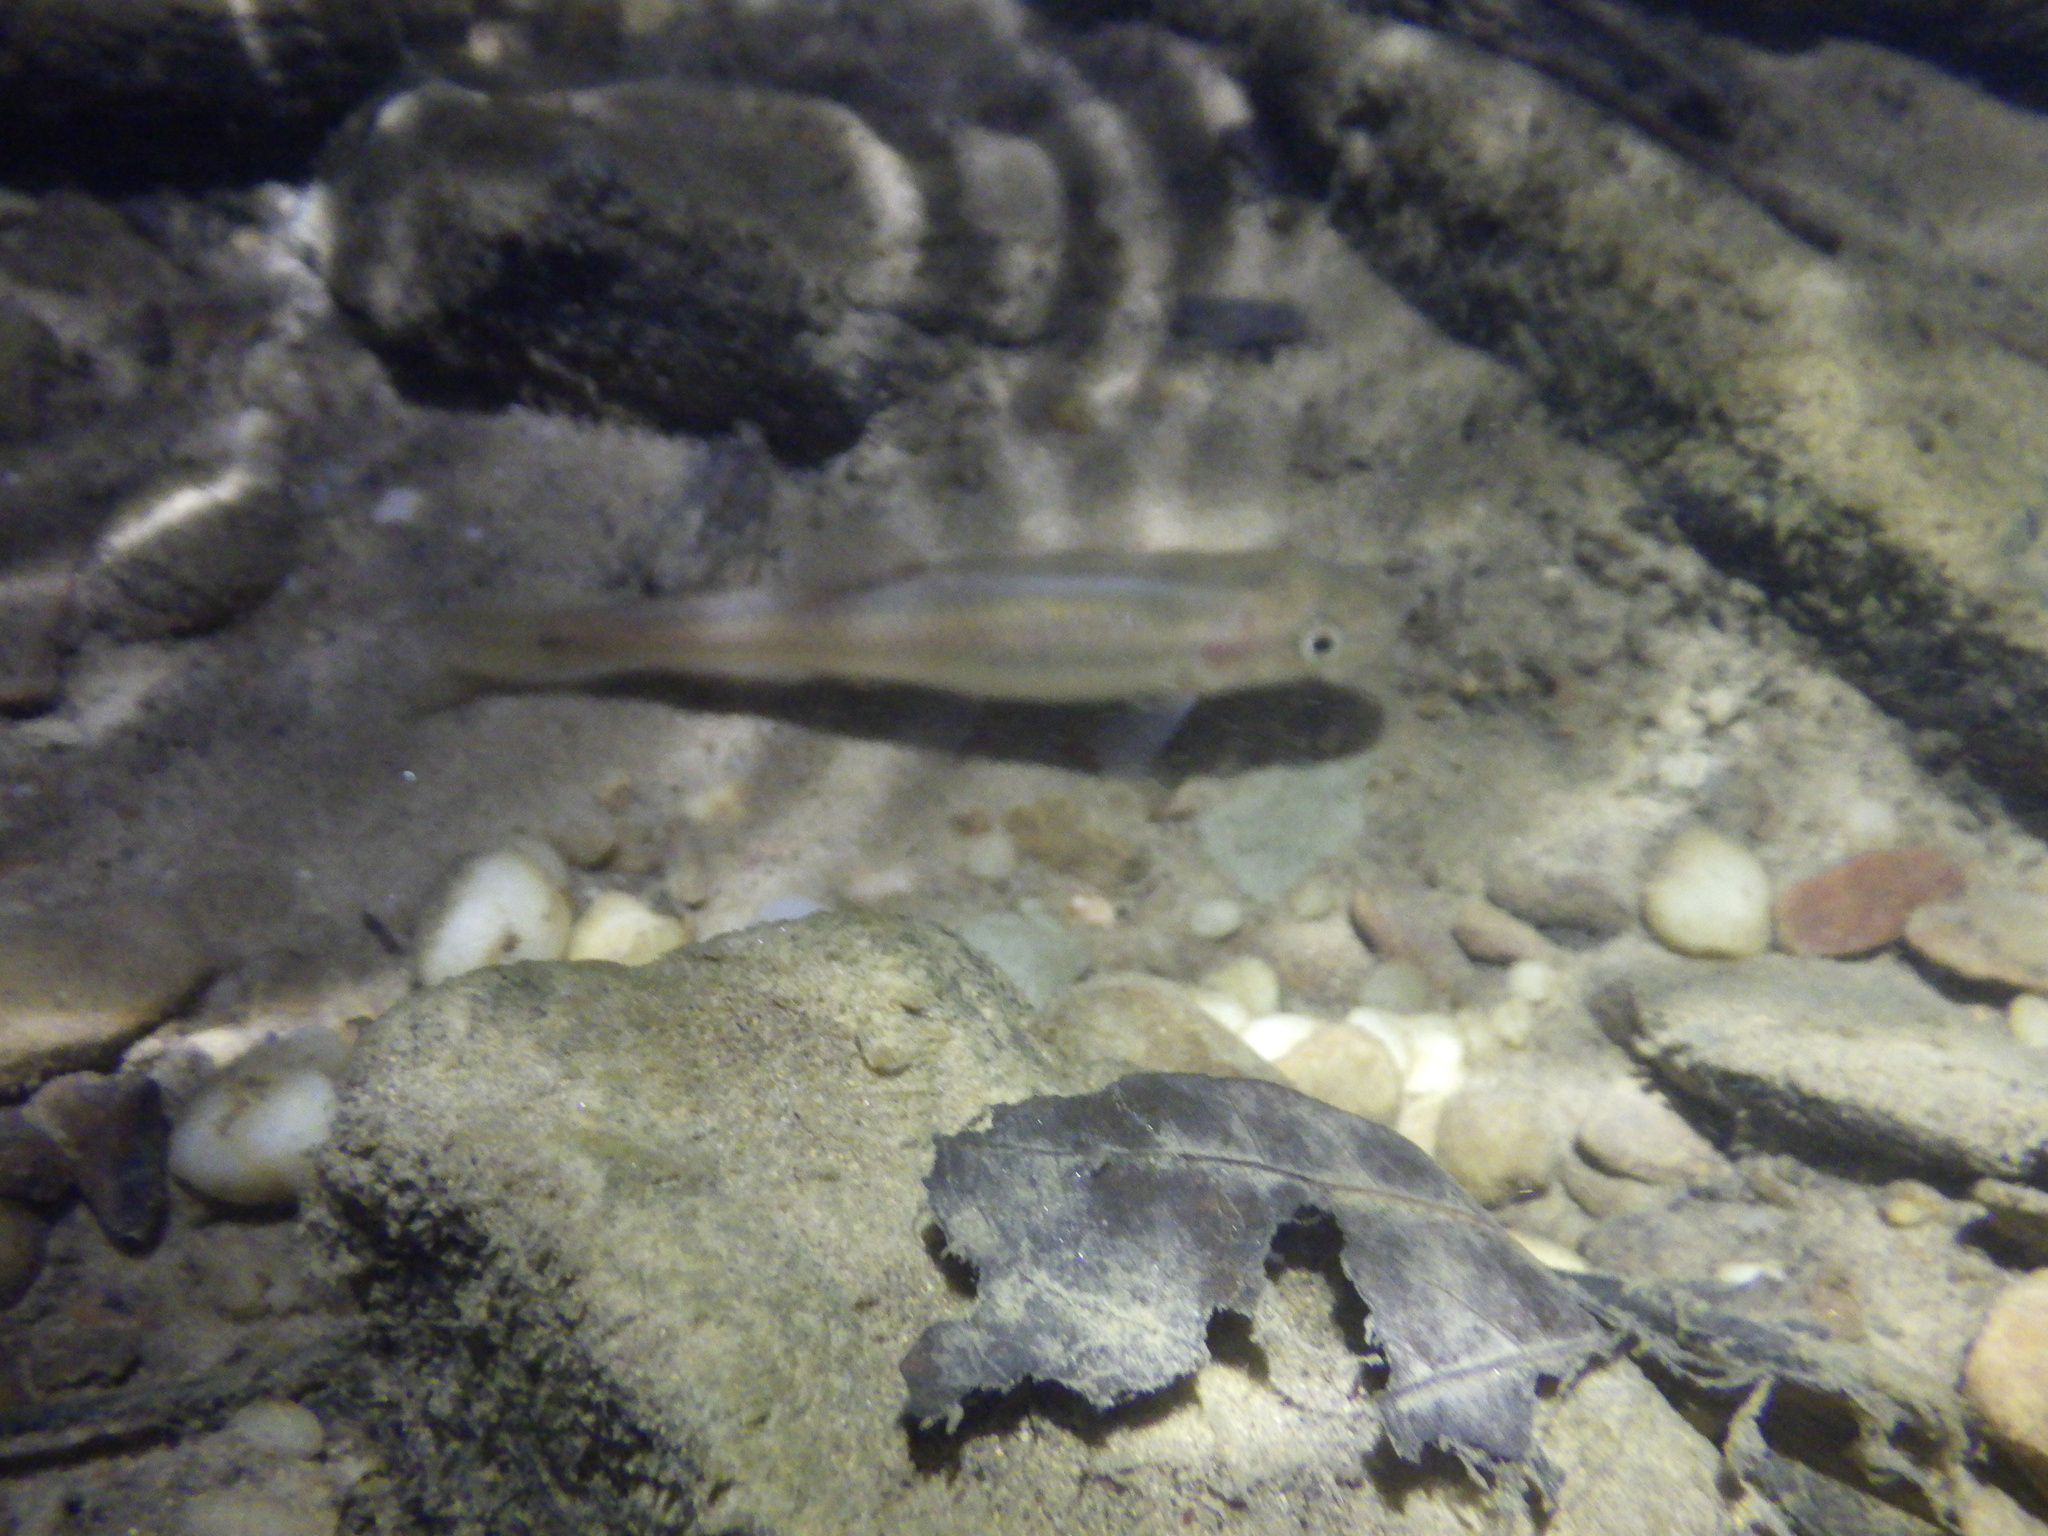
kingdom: Animalia
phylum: Chordata
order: Cypriniformes
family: Cyprinidae
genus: Semotilus
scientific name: Semotilus atromaculatus
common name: Creek chub
